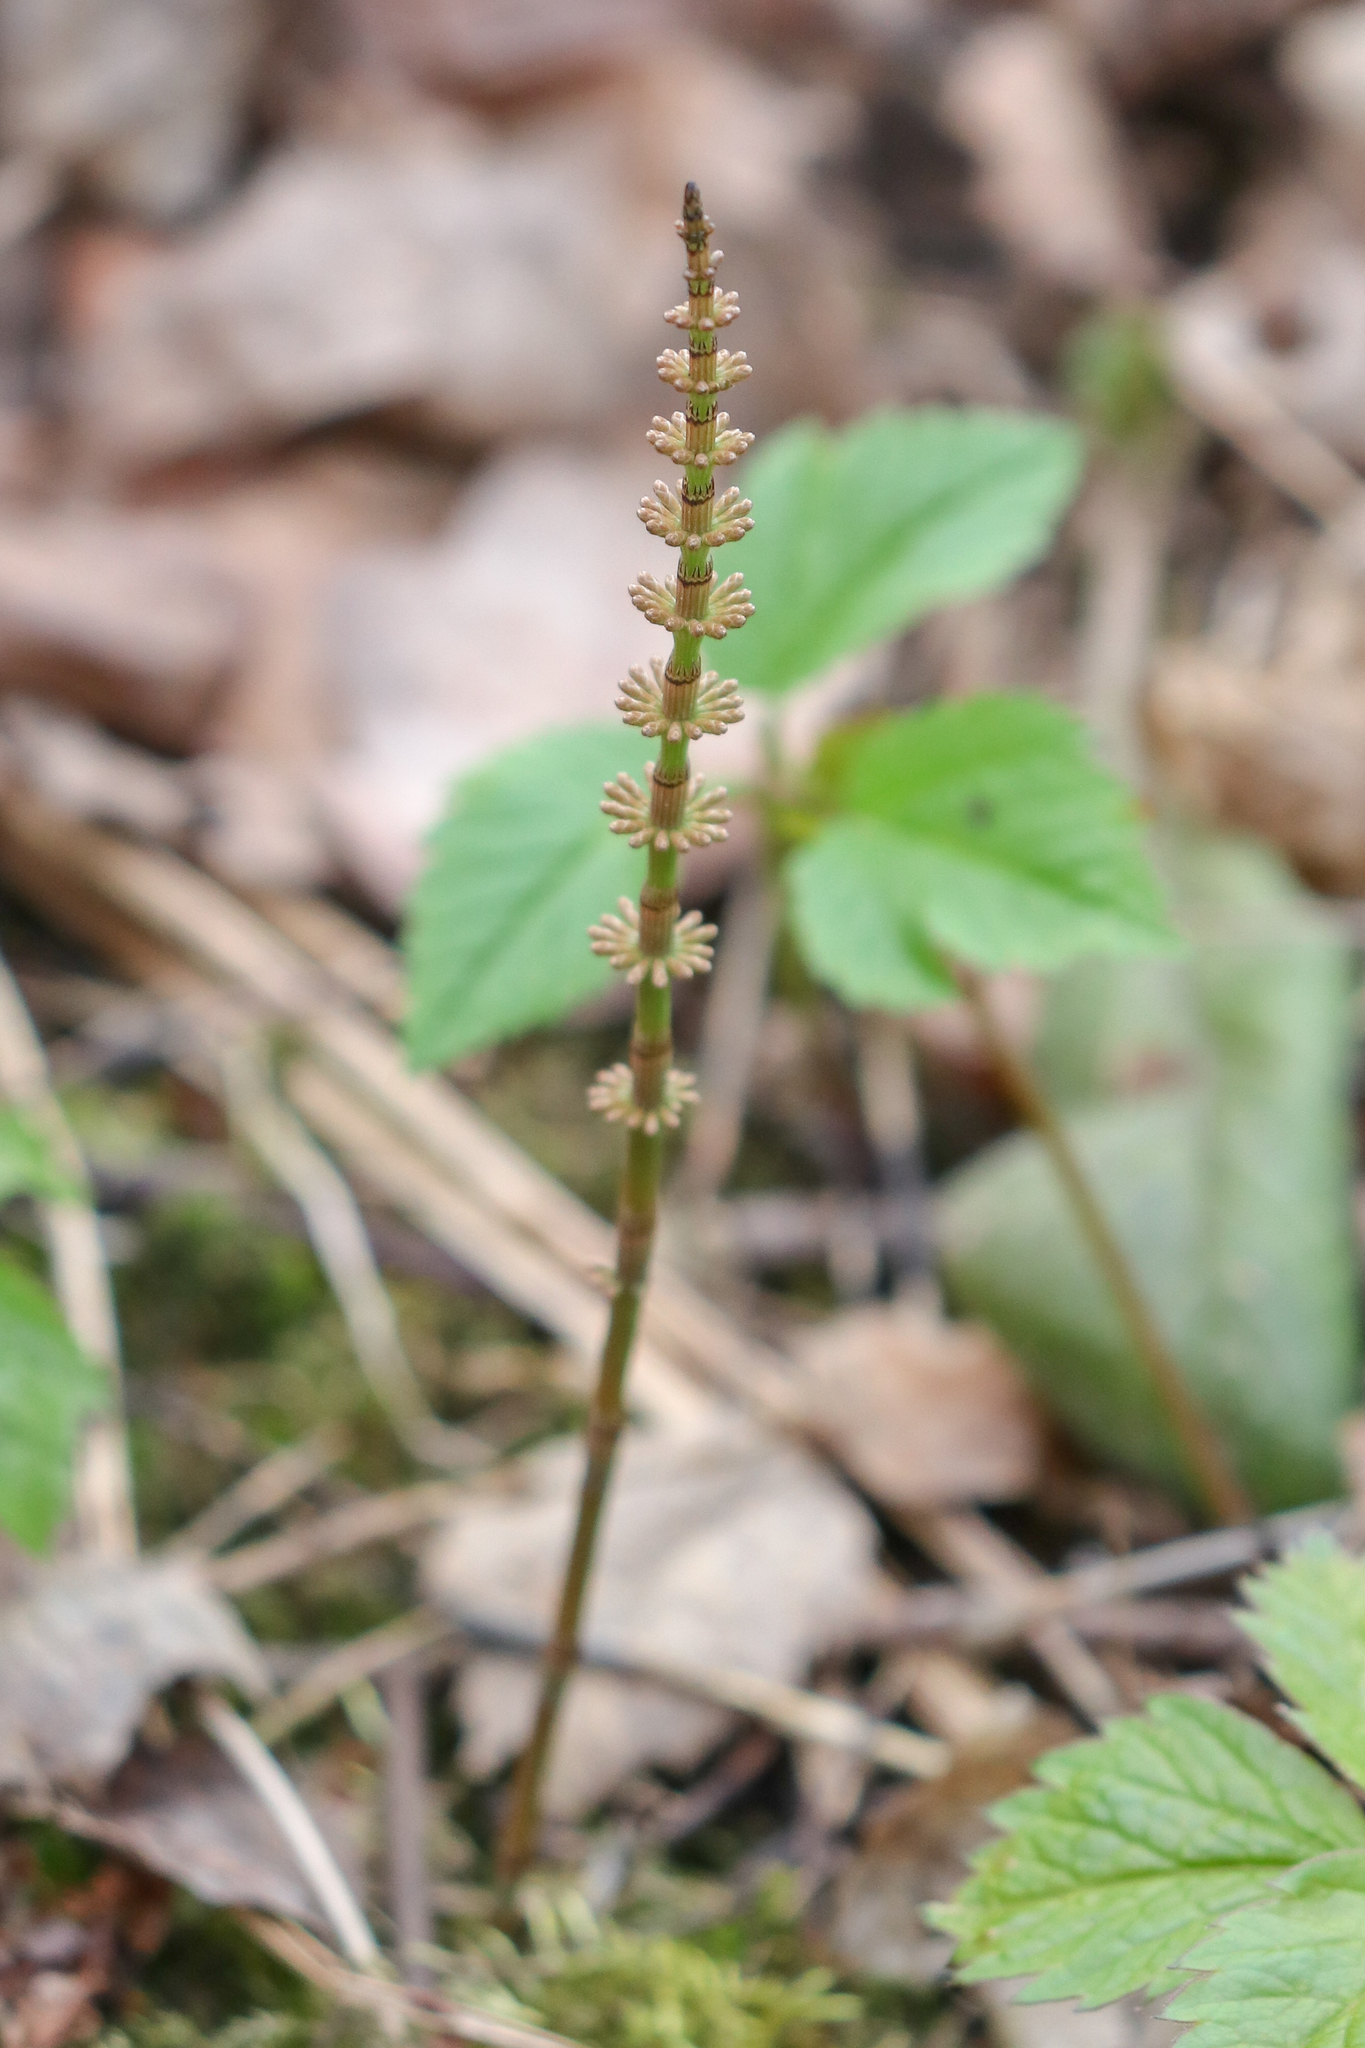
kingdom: Plantae
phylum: Tracheophyta
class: Polypodiopsida
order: Equisetales
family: Equisetaceae
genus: Equisetum
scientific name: Equisetum pratense
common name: Meadow horsetail
